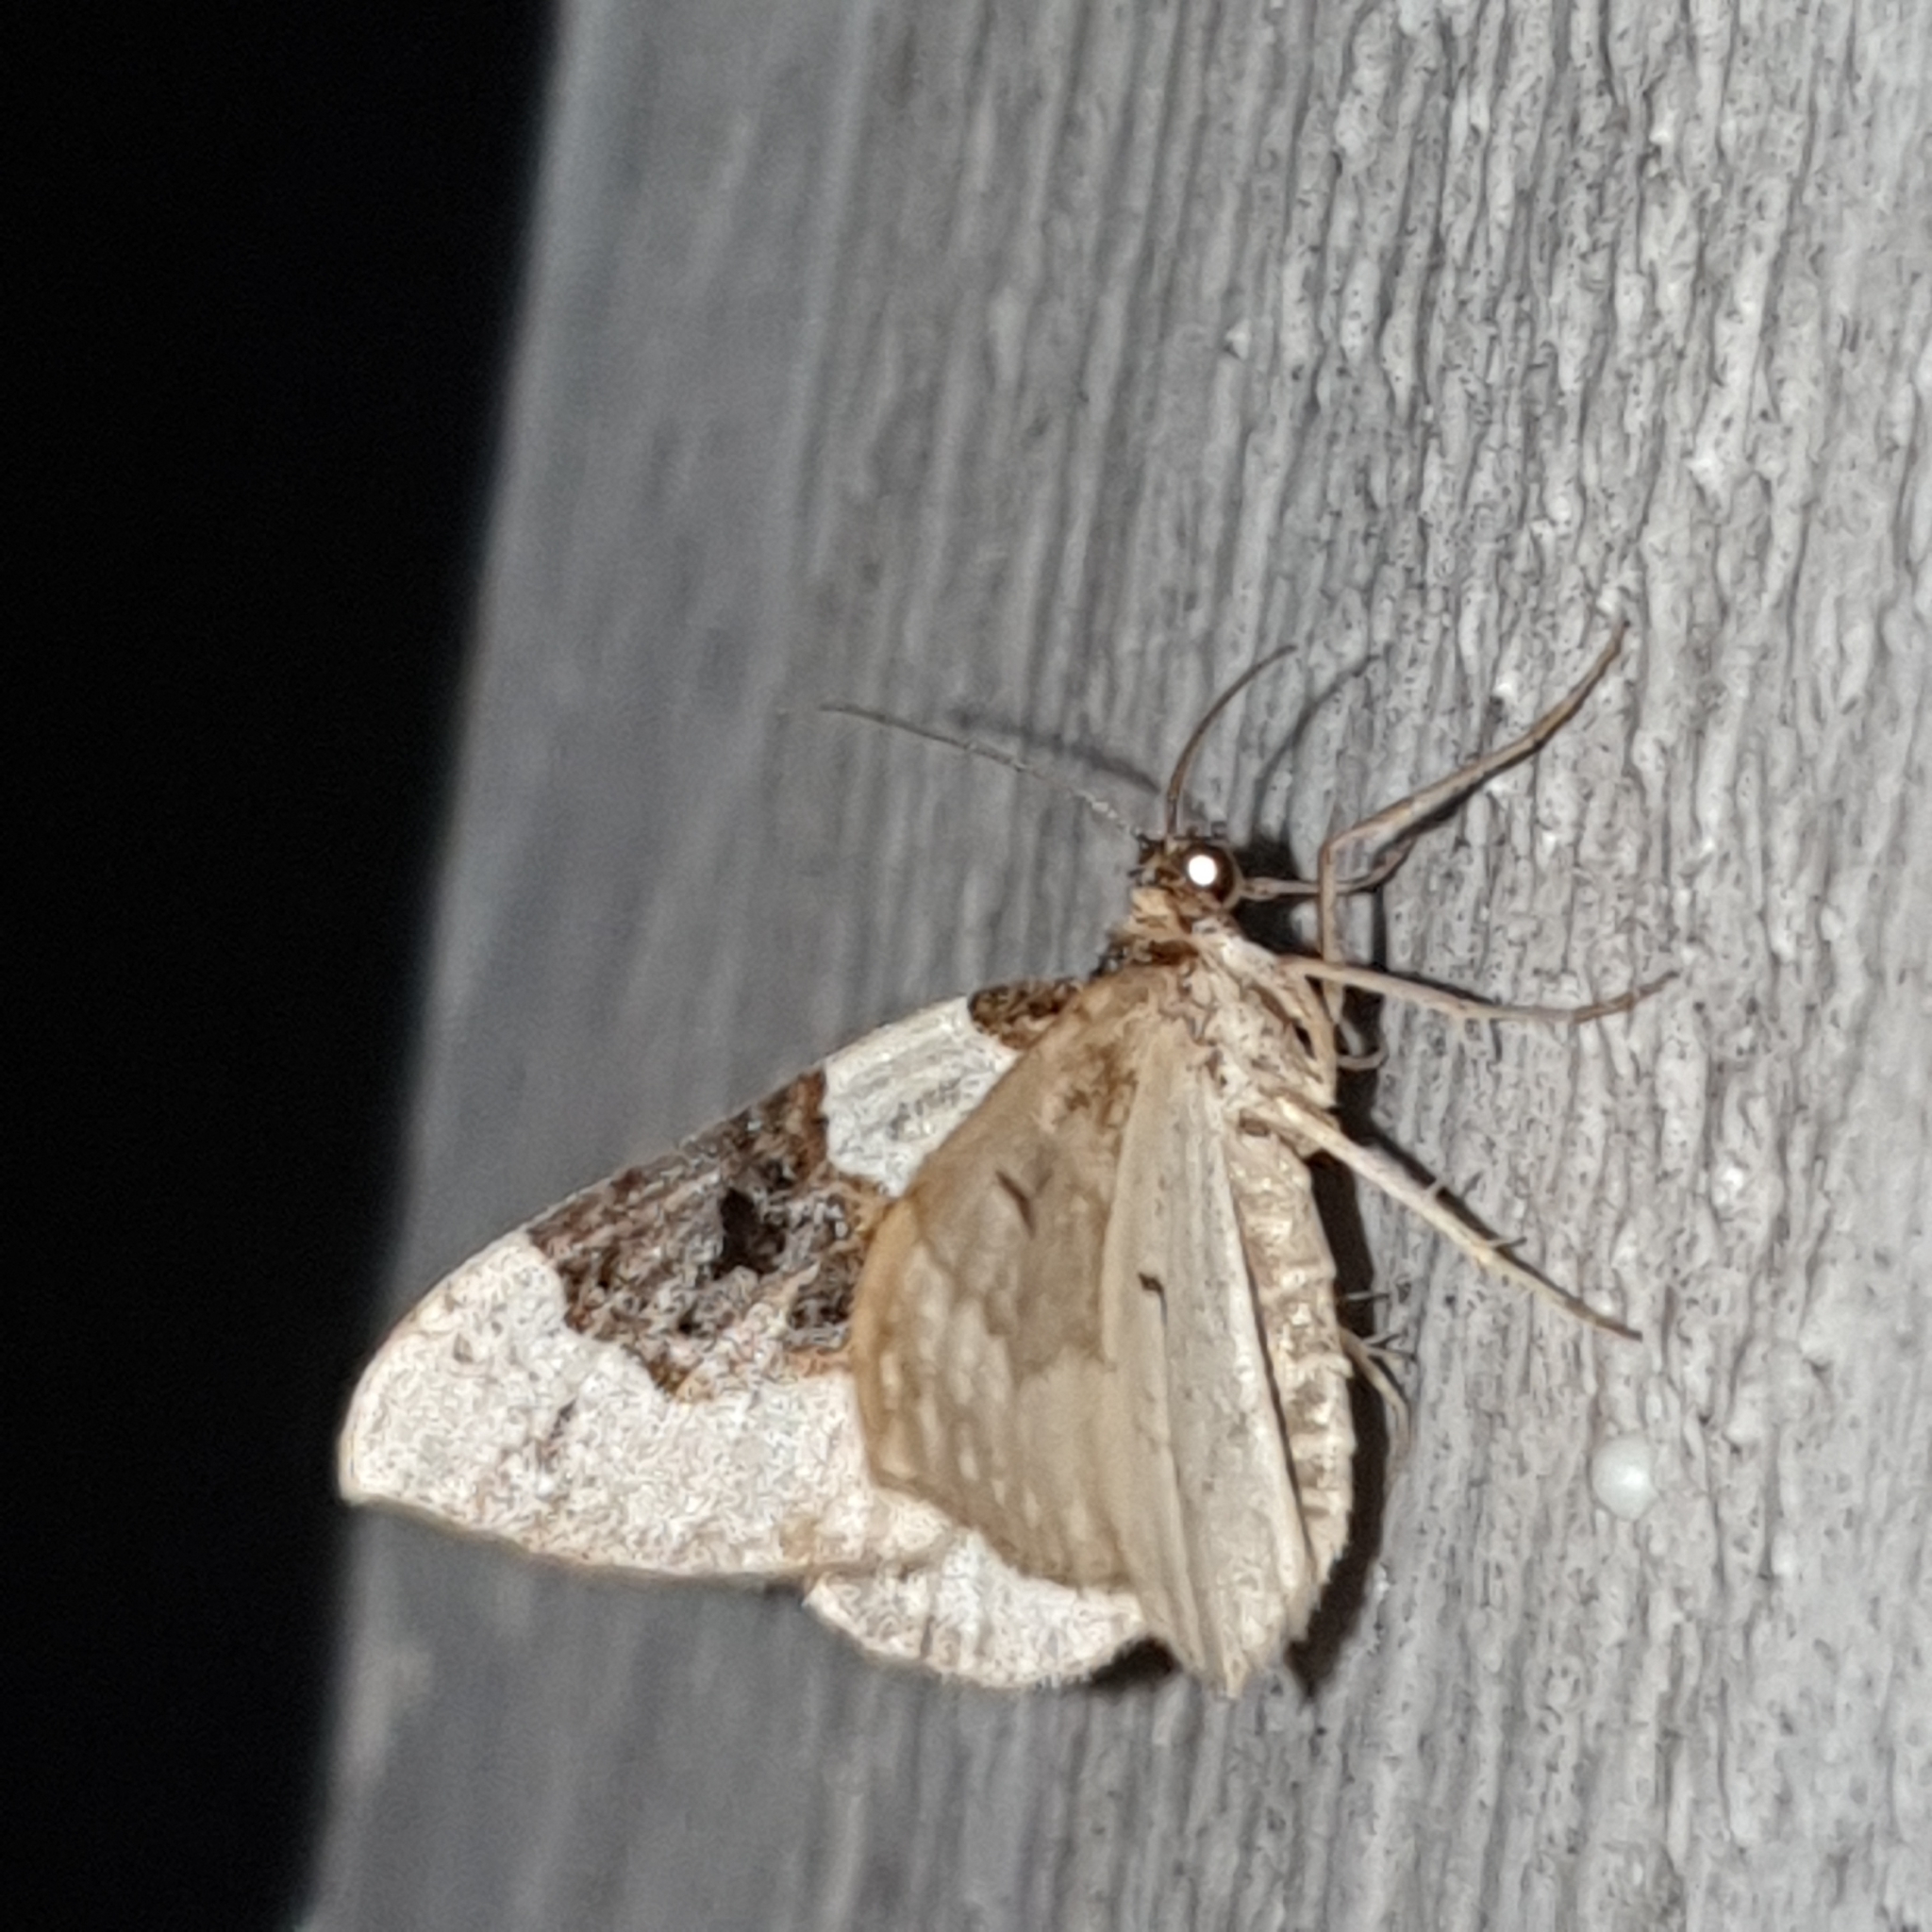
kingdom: Animalia
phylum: Arthropoda
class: Insecta
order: Lepidoptera
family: Geometridae
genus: Cosmorhoe
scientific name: Cosmorhoe ocellata
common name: Purple bar
